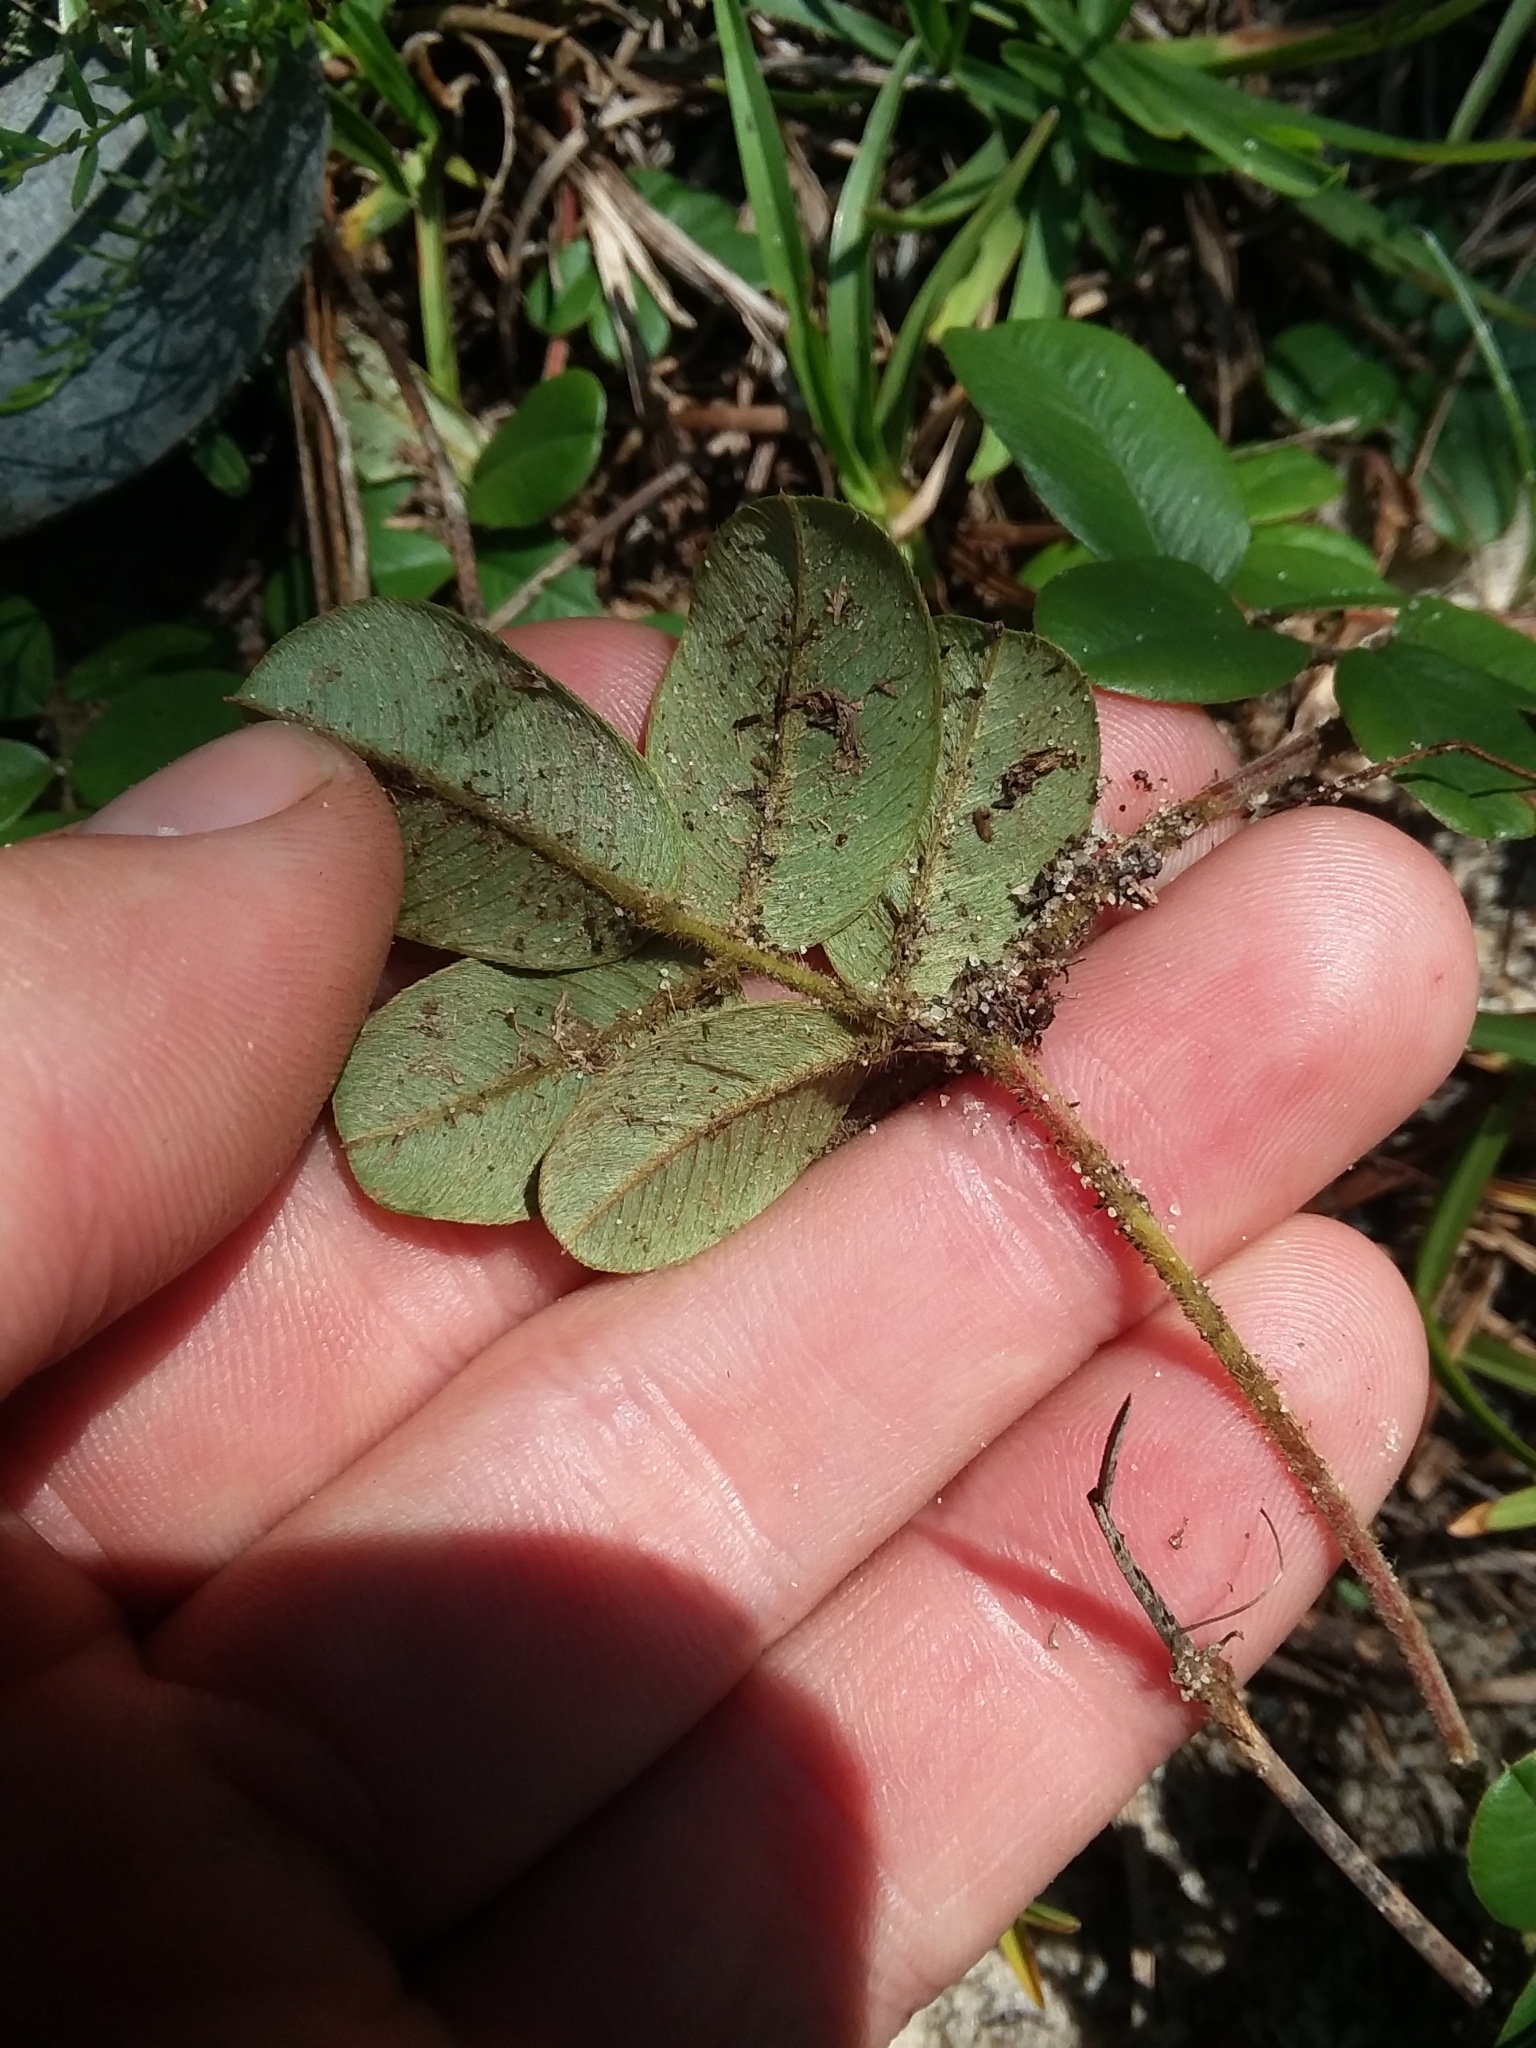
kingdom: Plantae
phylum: Tracheophyta
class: Magnoliopsida
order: Fabales
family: Fabaceae
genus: Tephrosia
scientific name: Tephrosia chrysophylla
